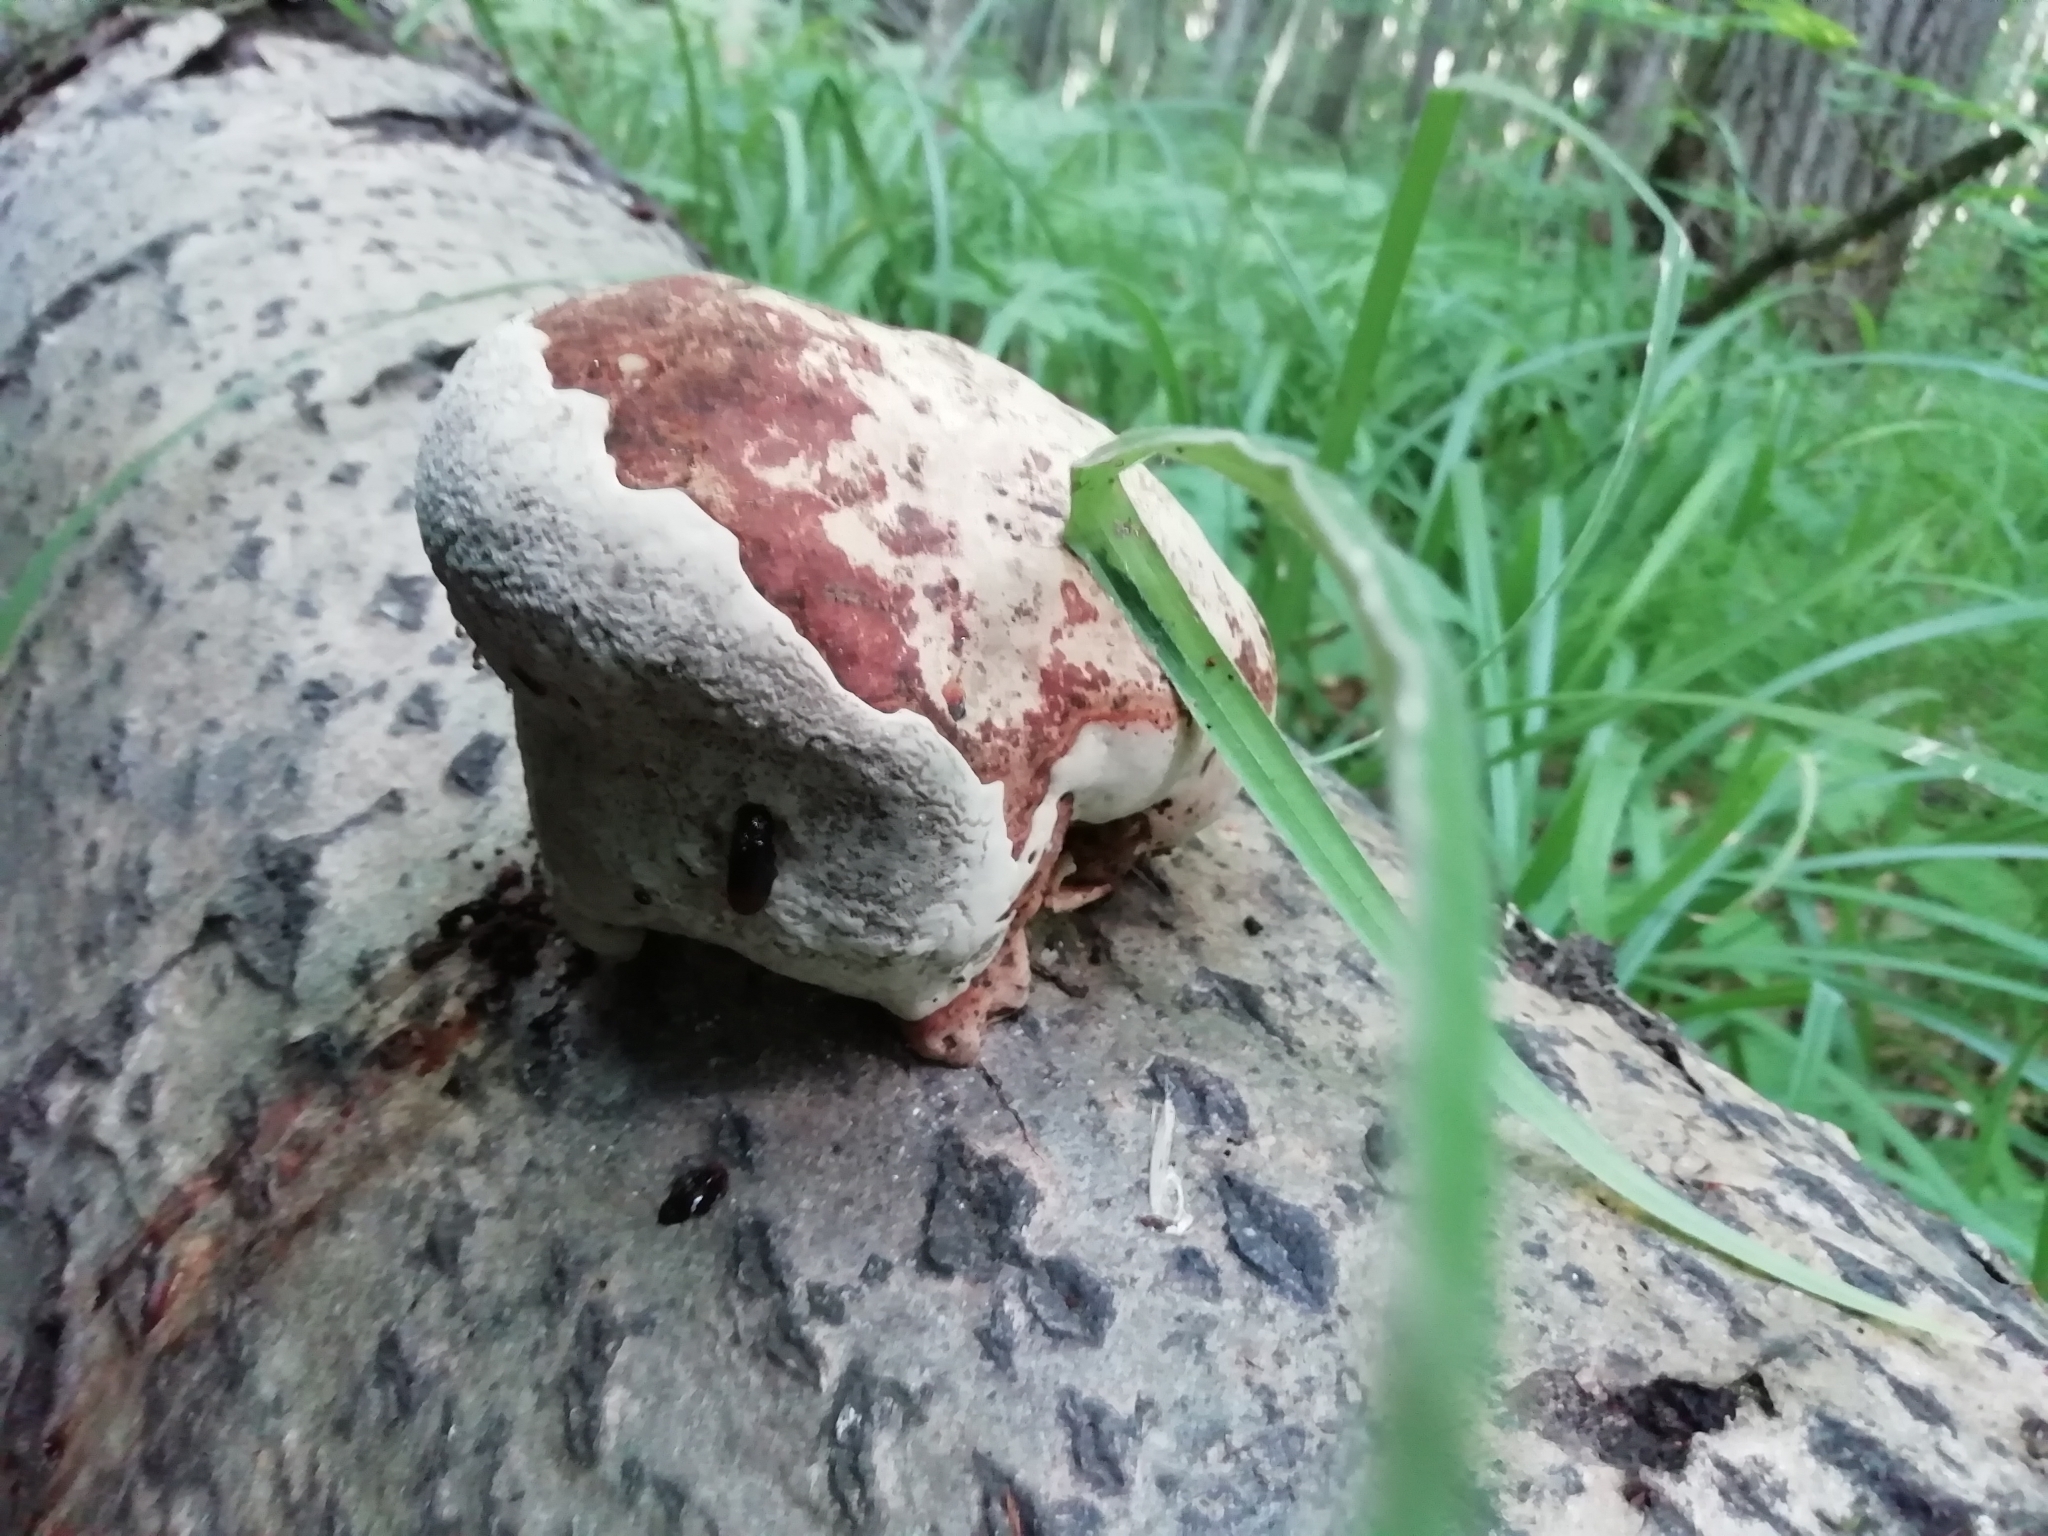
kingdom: Fungi
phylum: Basidiomycota
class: Agaricomycetes
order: Polyporales
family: Fomitopsidaceae
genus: Fomitopsis
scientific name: Fomitopsis pinicola
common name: Red-belted bracket
